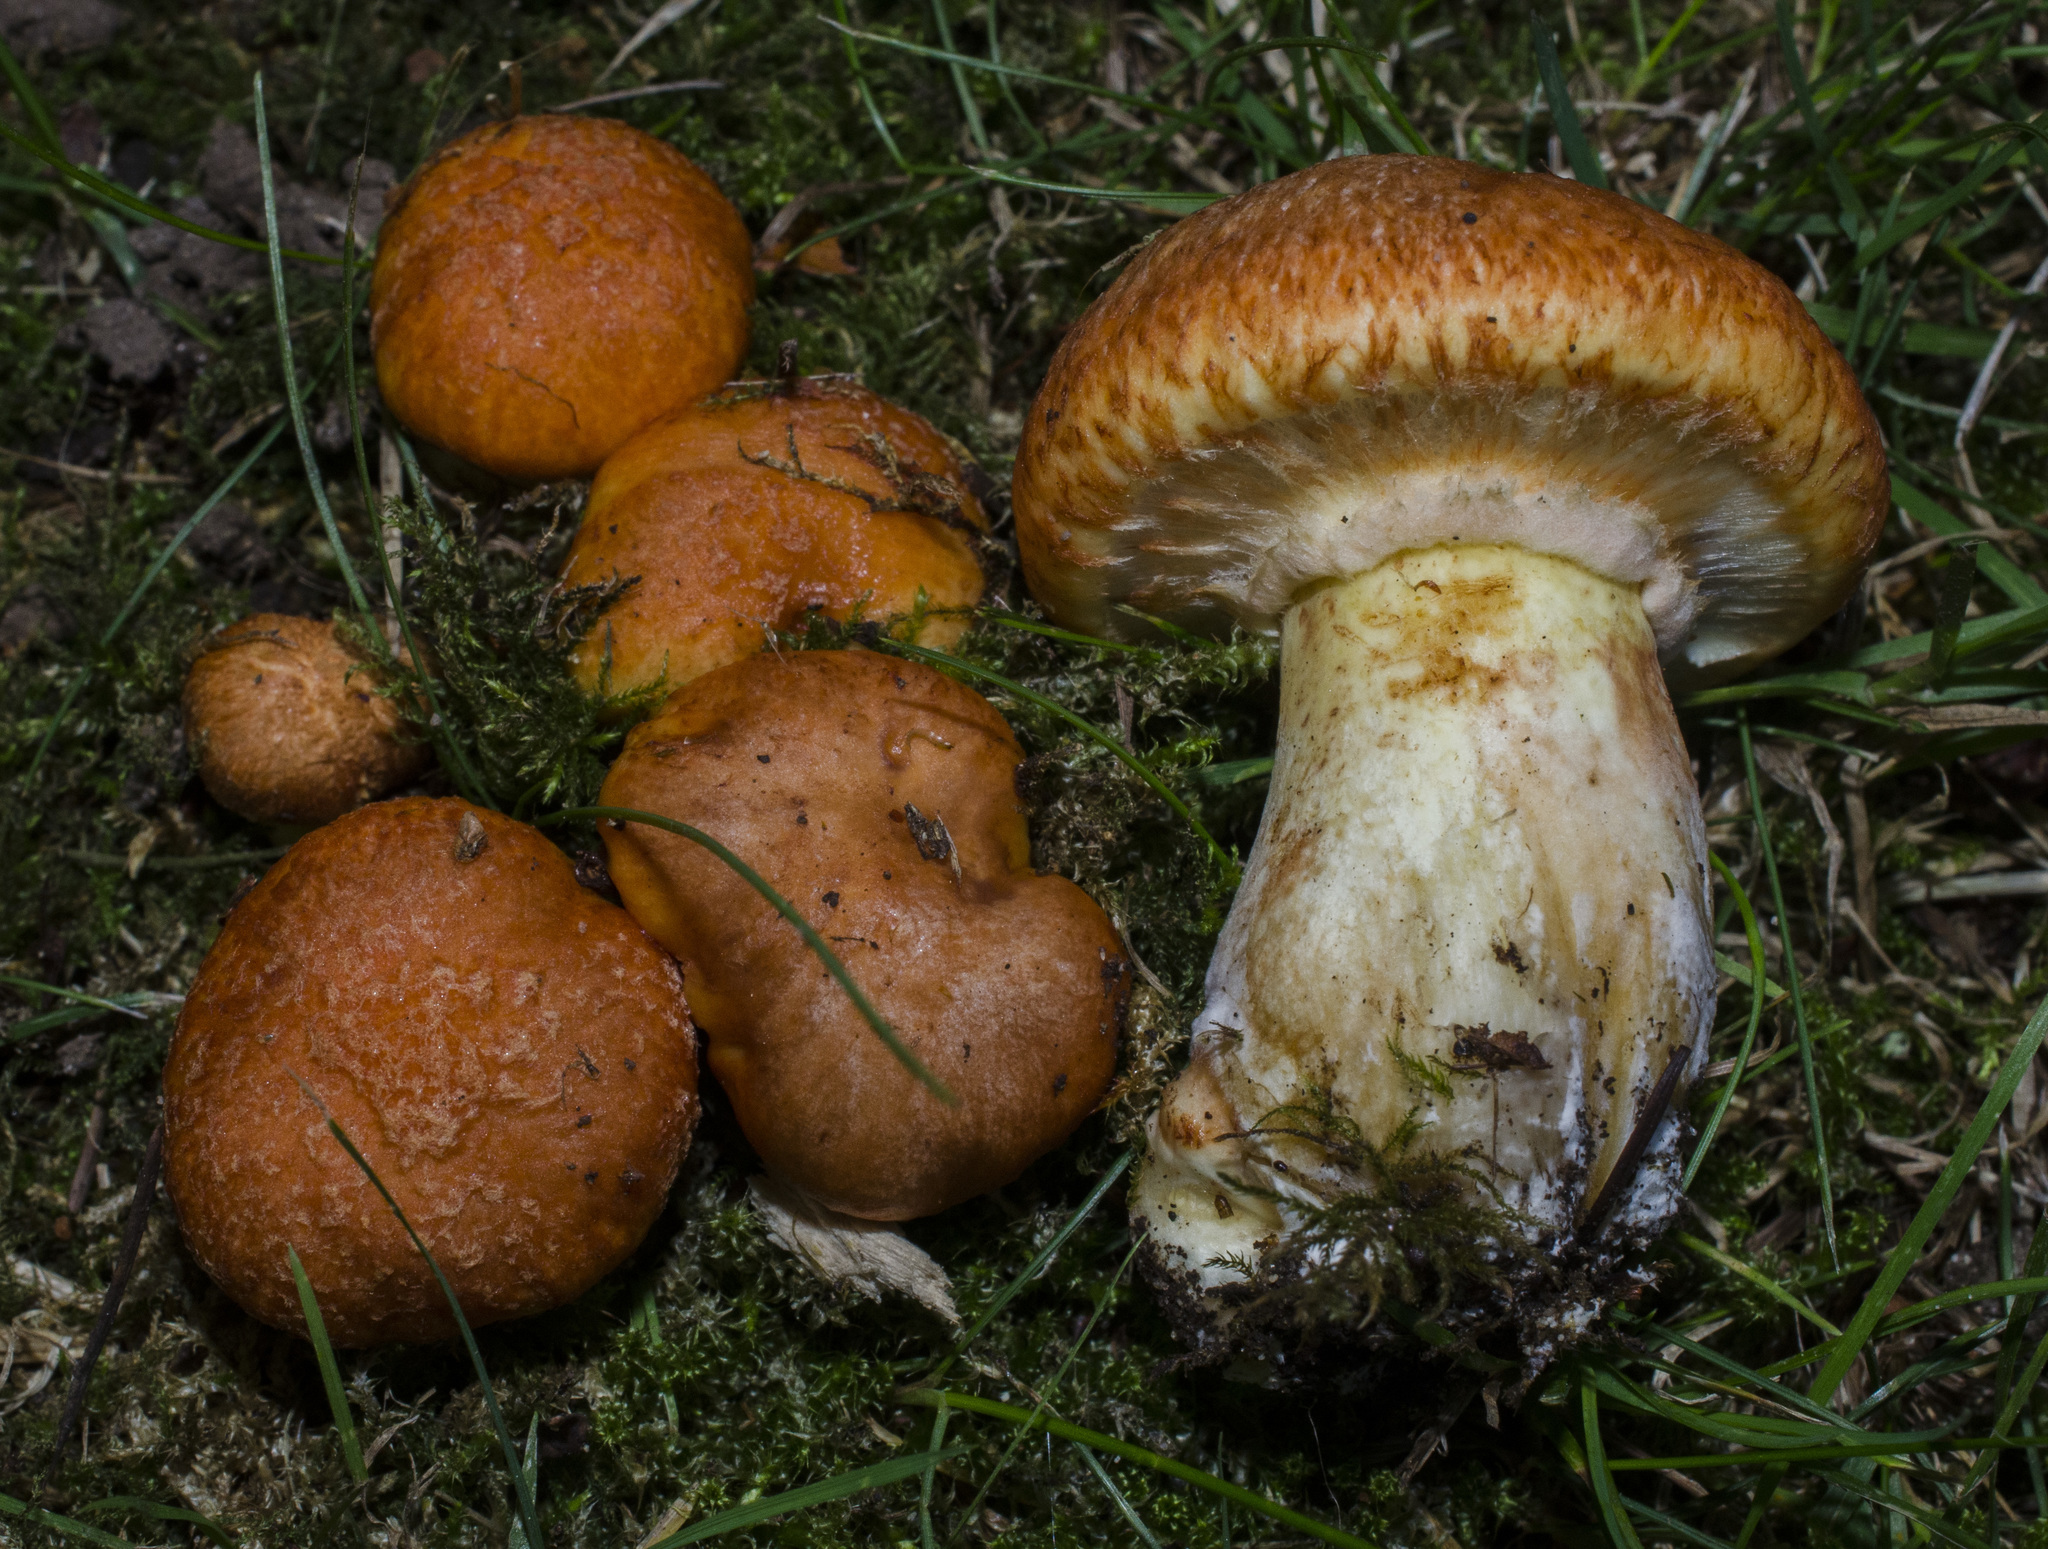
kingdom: Fungi
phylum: Basidiomycota
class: Agaricomycetes
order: Boletales
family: Suillaceae
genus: Suillus
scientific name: Suillus caerulescens
